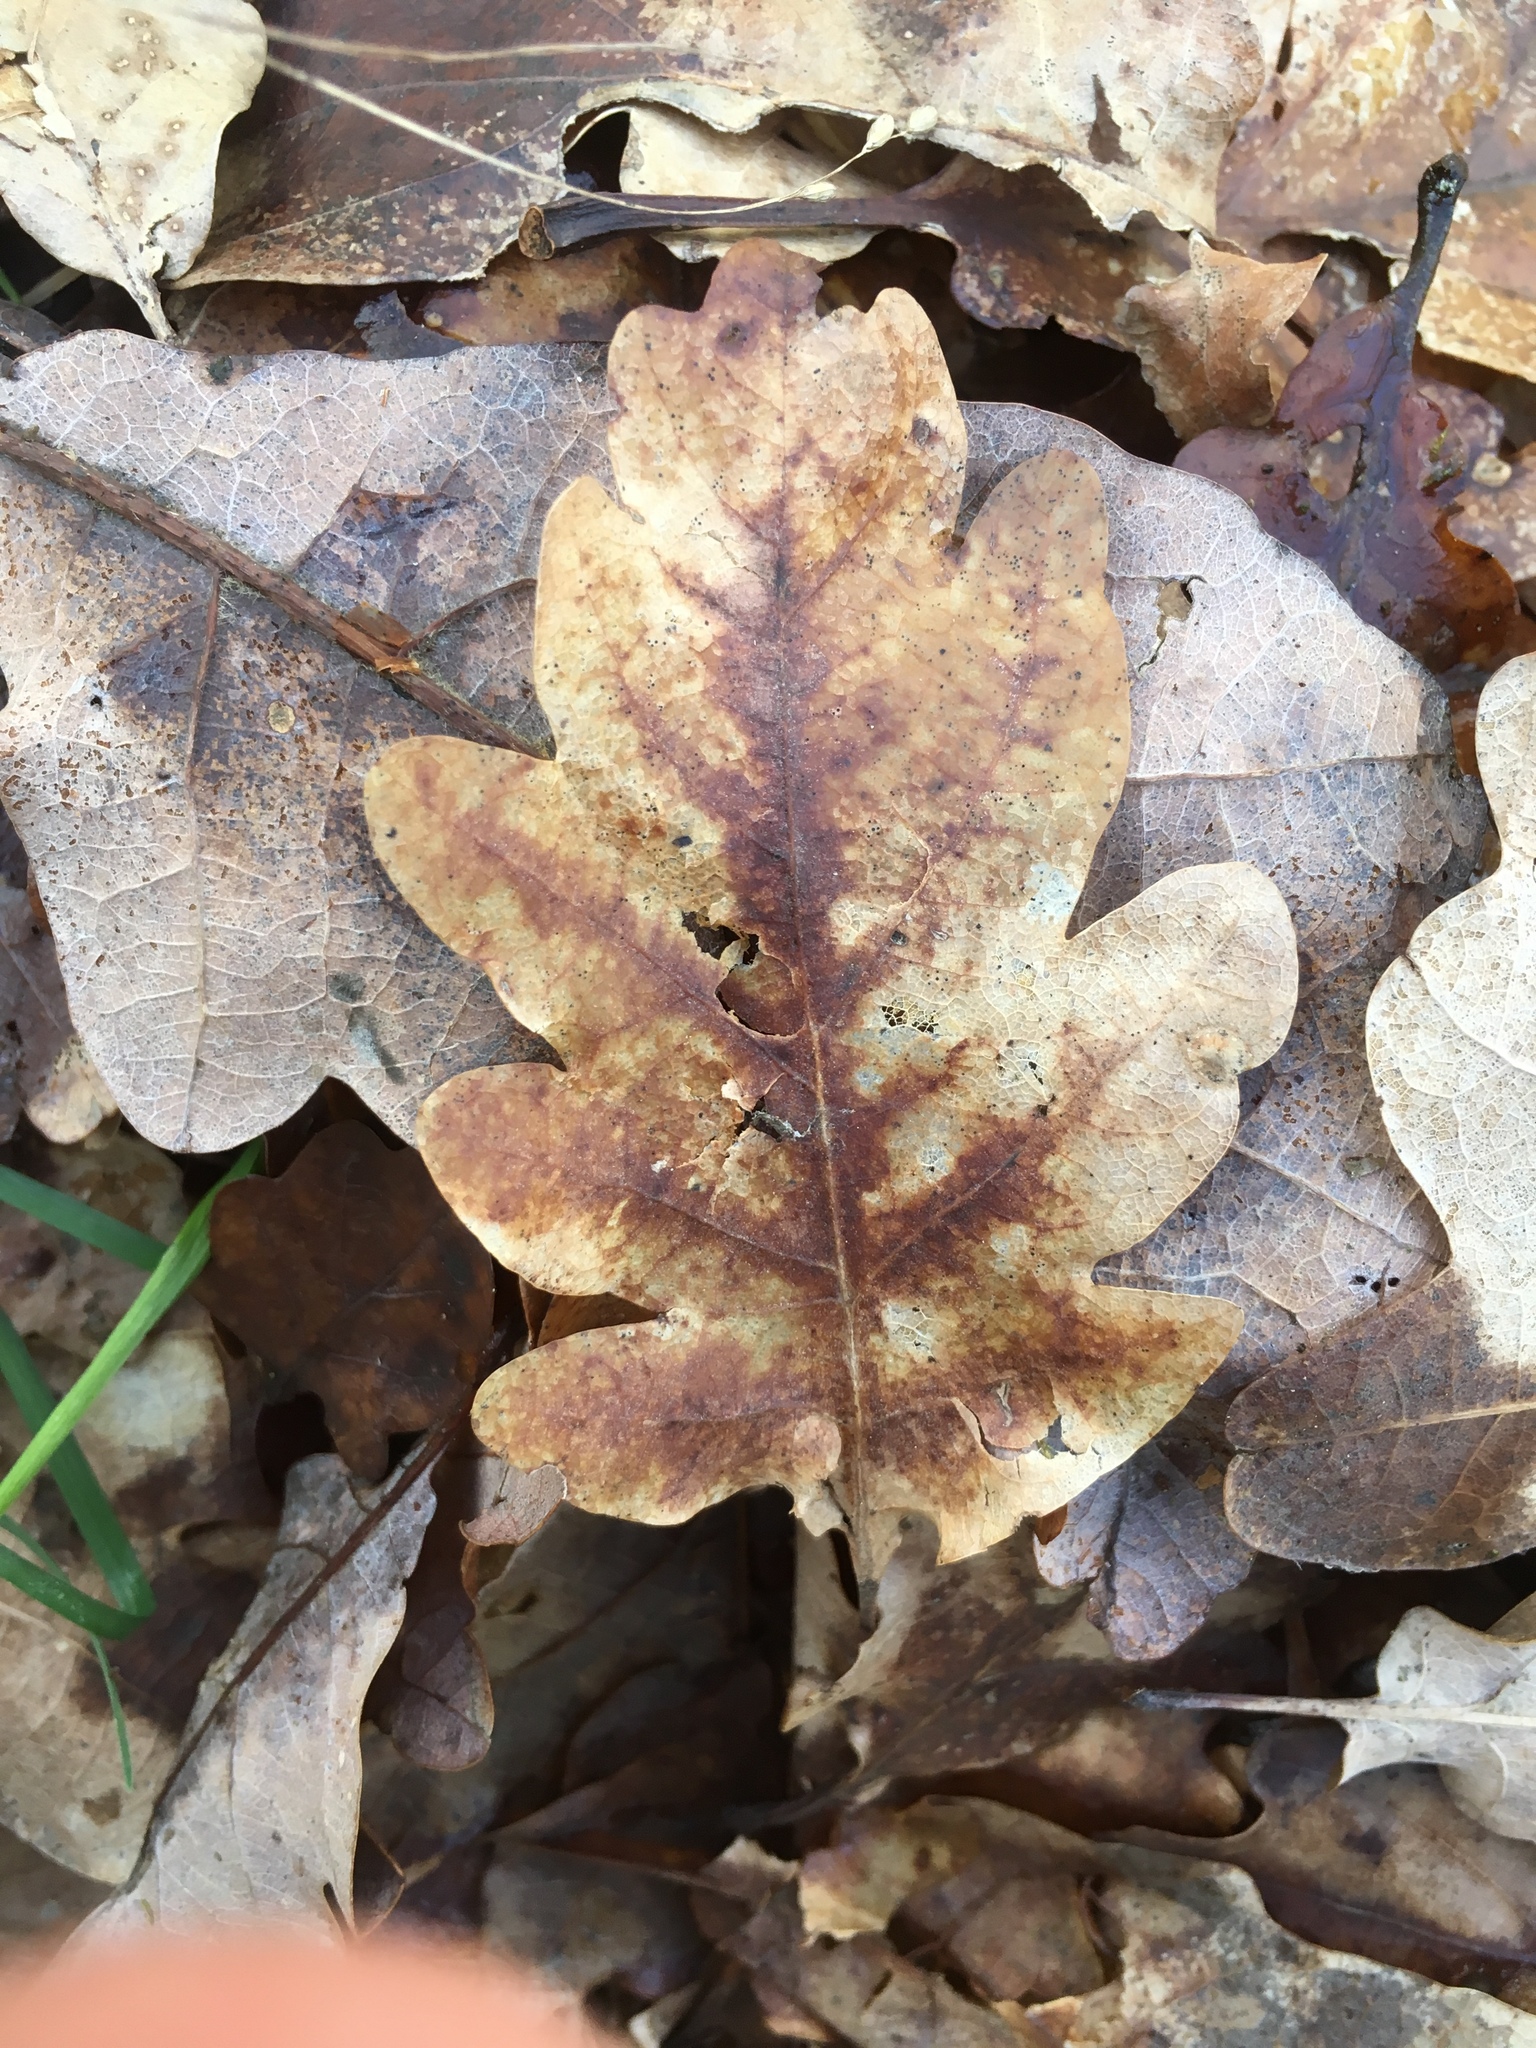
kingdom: Plantae
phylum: Tracheophyta
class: Magnoliopsida
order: Fagales
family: Fagaceae
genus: Quercus
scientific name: Quercus robur
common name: Pedunculate oak
